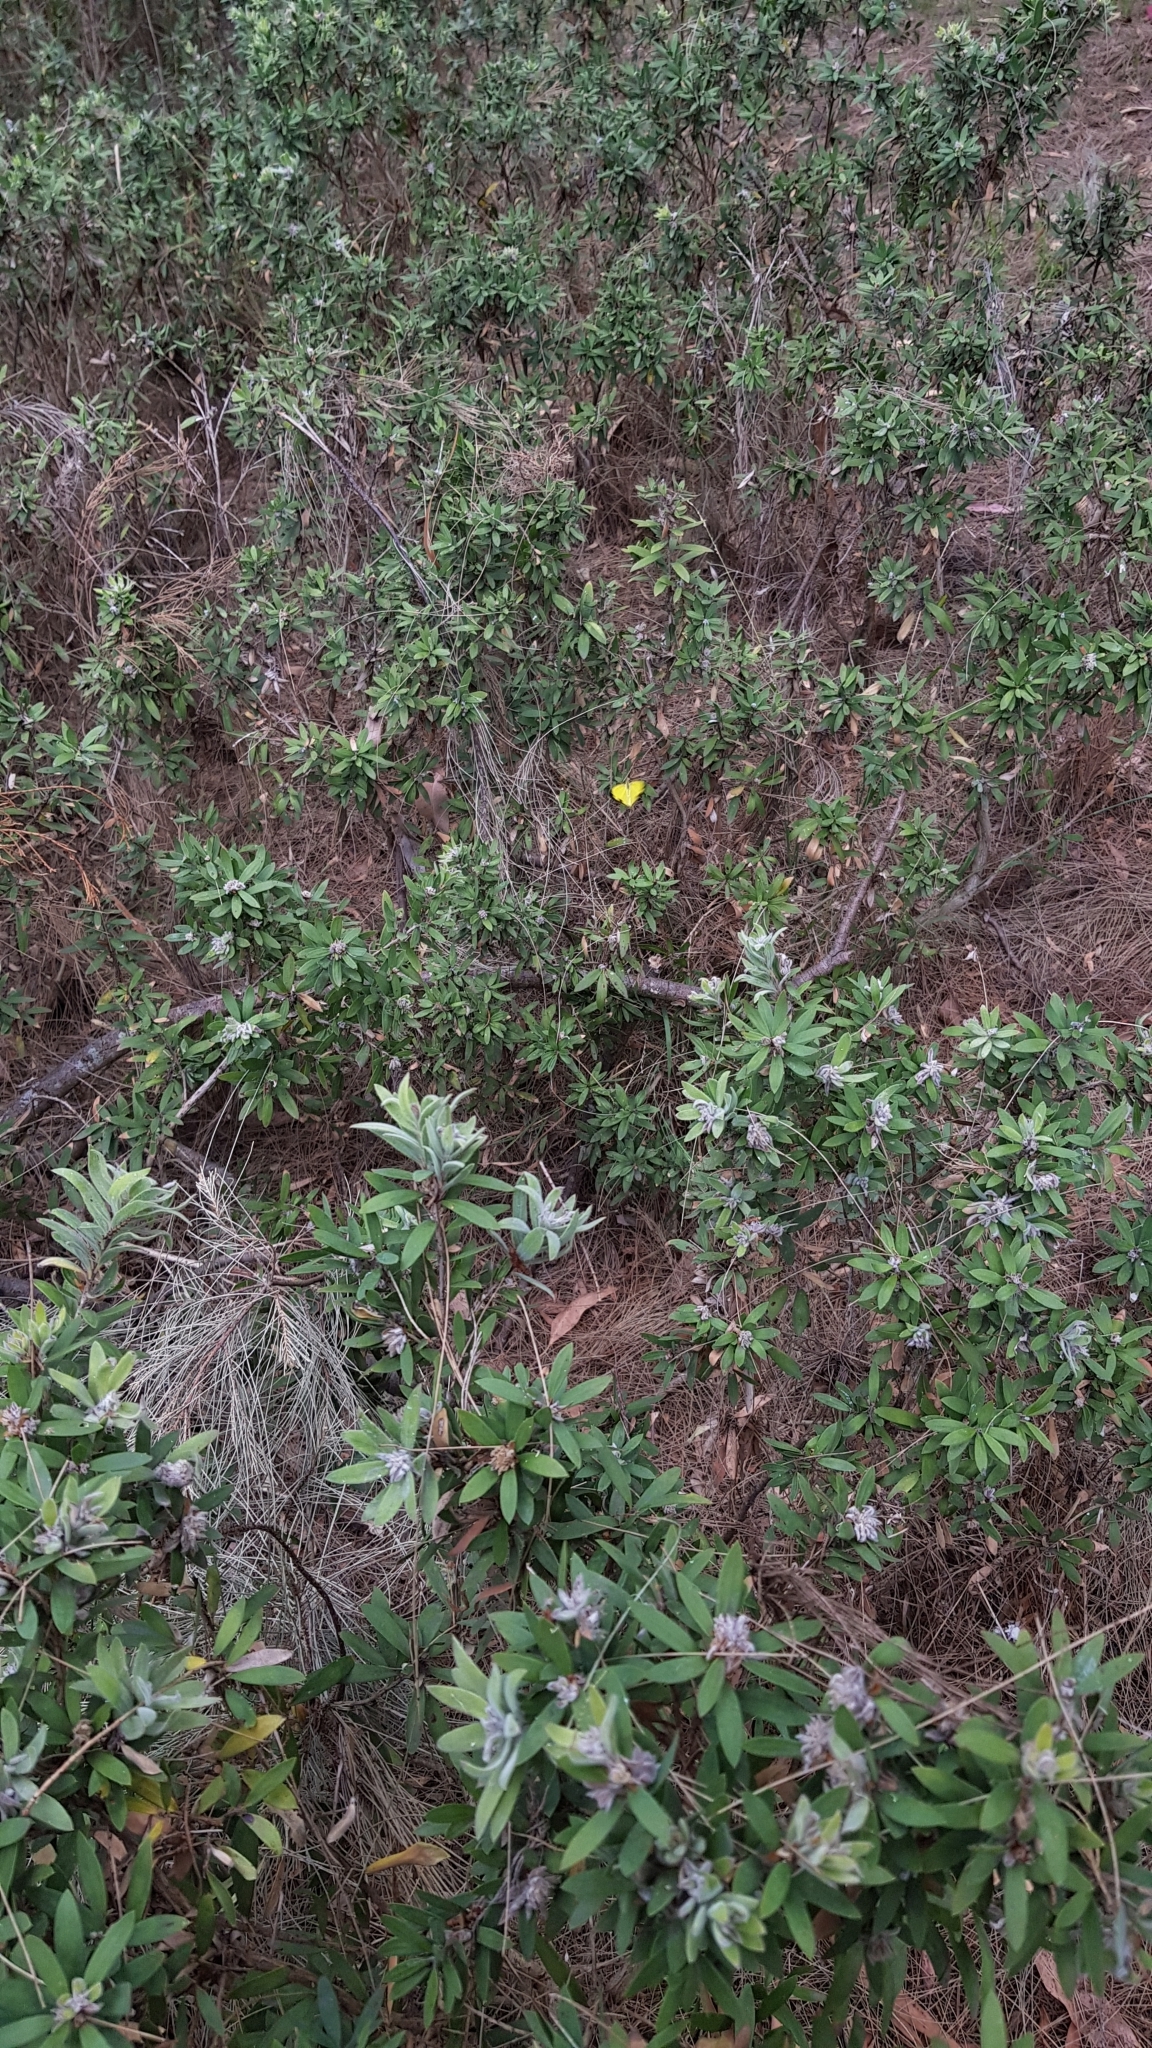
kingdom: Animalia
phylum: Arthropoda
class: Insecta
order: Lepidoptera
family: Pieridae
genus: Eurema
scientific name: Eurema hecabe
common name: Pale grass yellow
